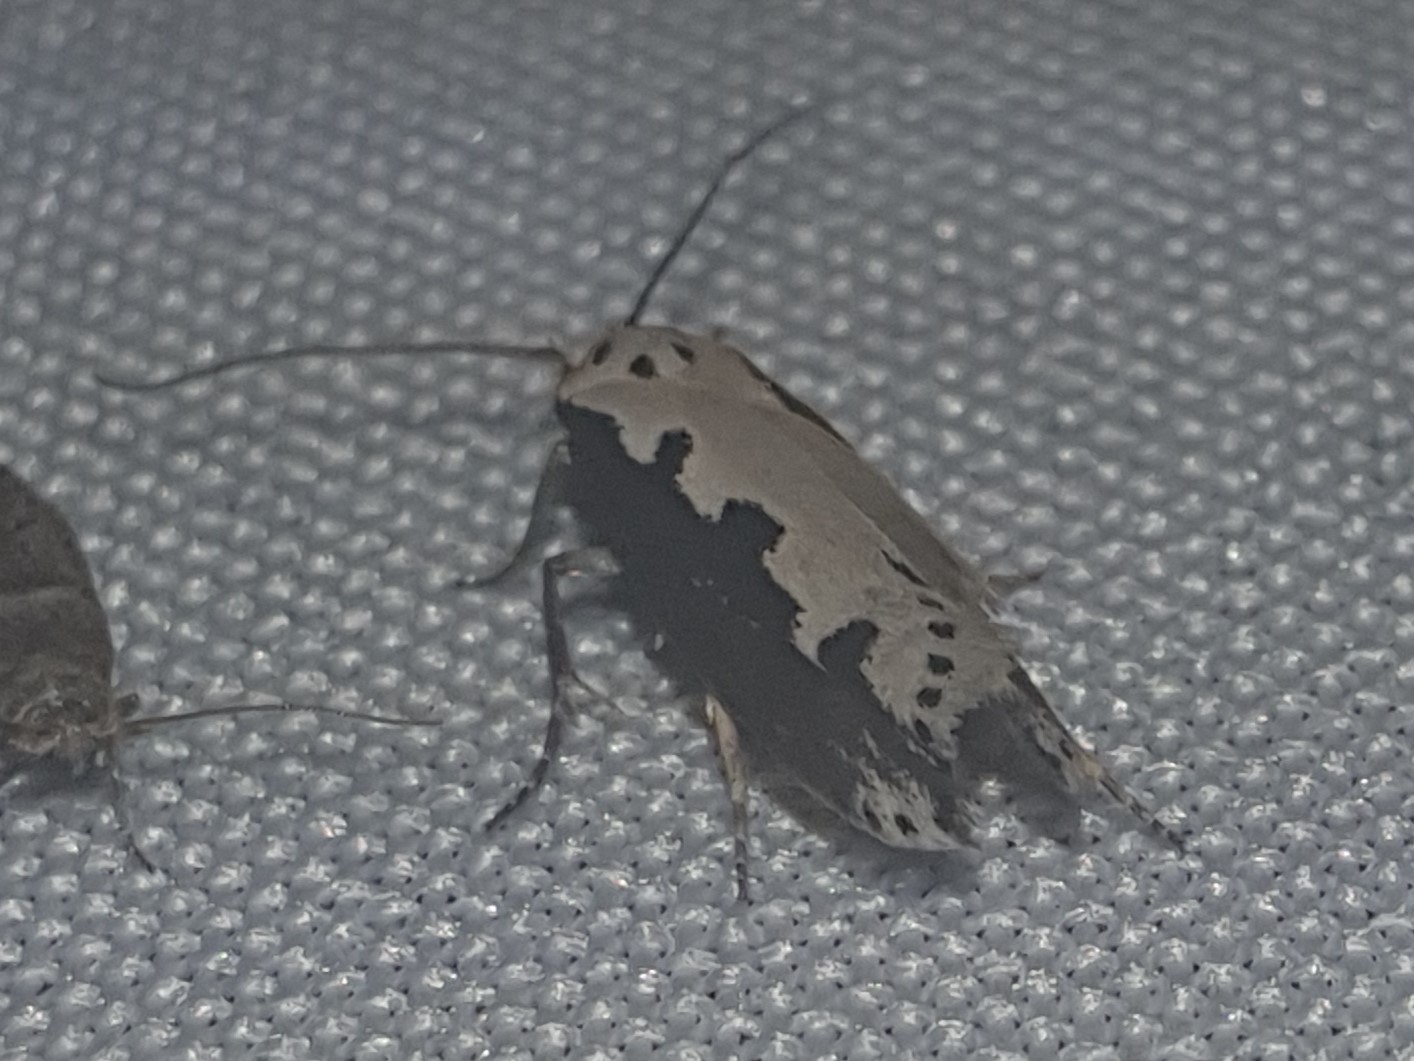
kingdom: Animalia
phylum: Arthropoda
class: Insecta
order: Lepidoptera
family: Ethmiidae
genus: Ethmia
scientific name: Ethmia bipunctella
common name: Bordered ermel
